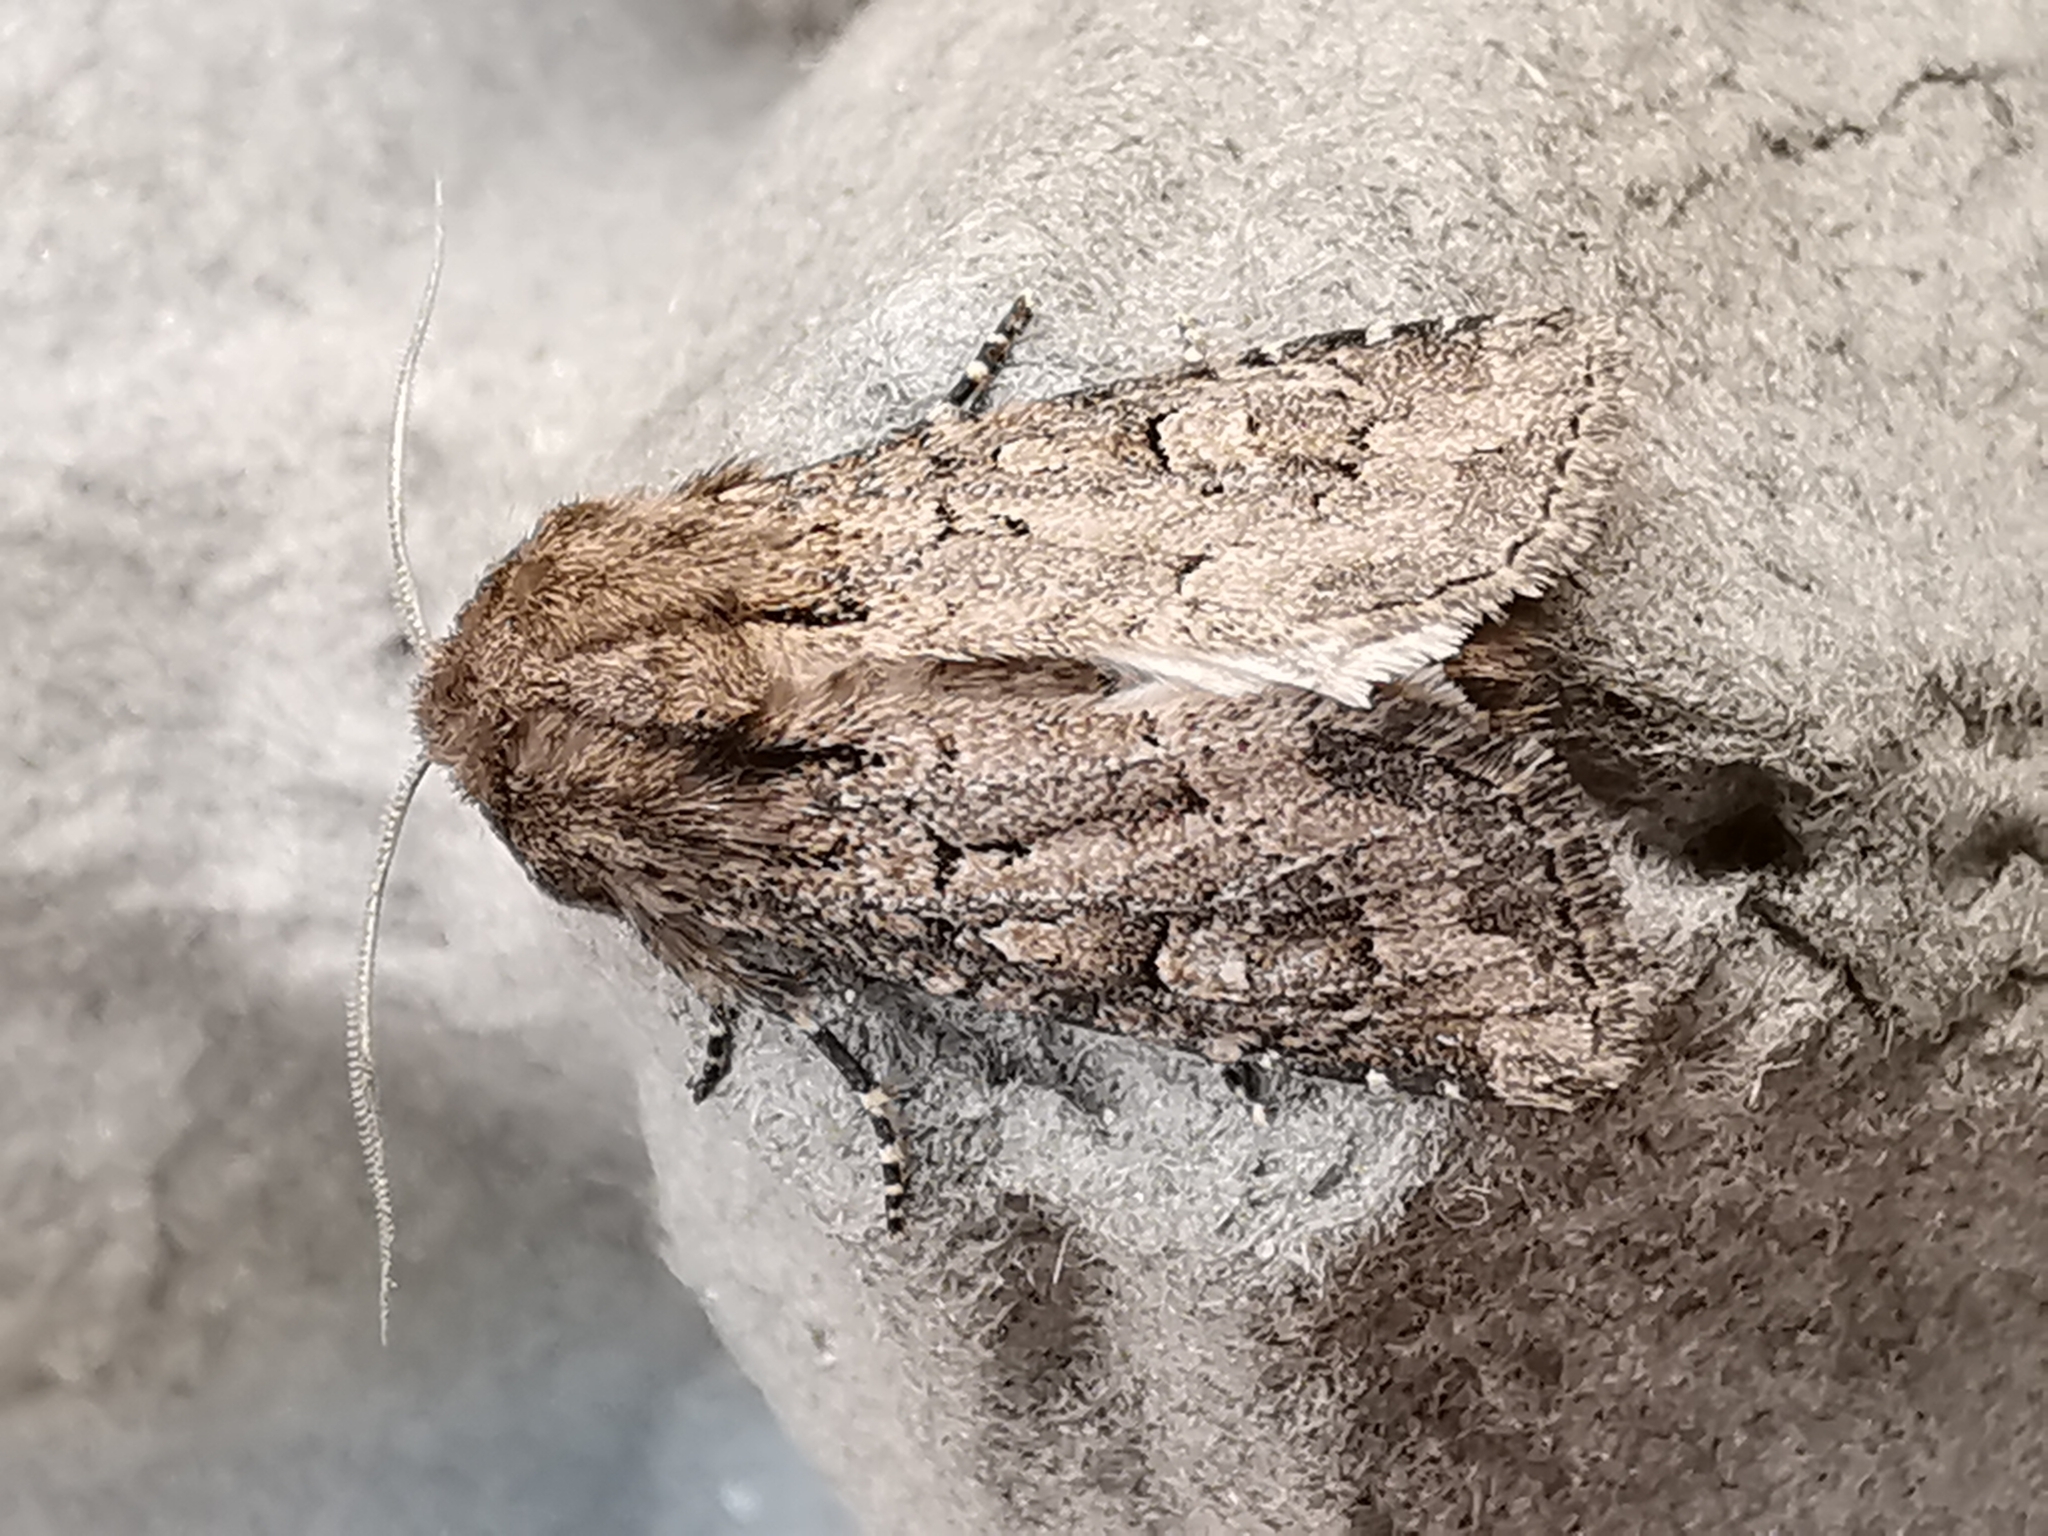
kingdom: Animalia
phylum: Arthropoda
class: Insecta
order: Lepidoptera
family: Noctuidae
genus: Luperina
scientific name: Luperina testacea
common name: Flounced rustic
